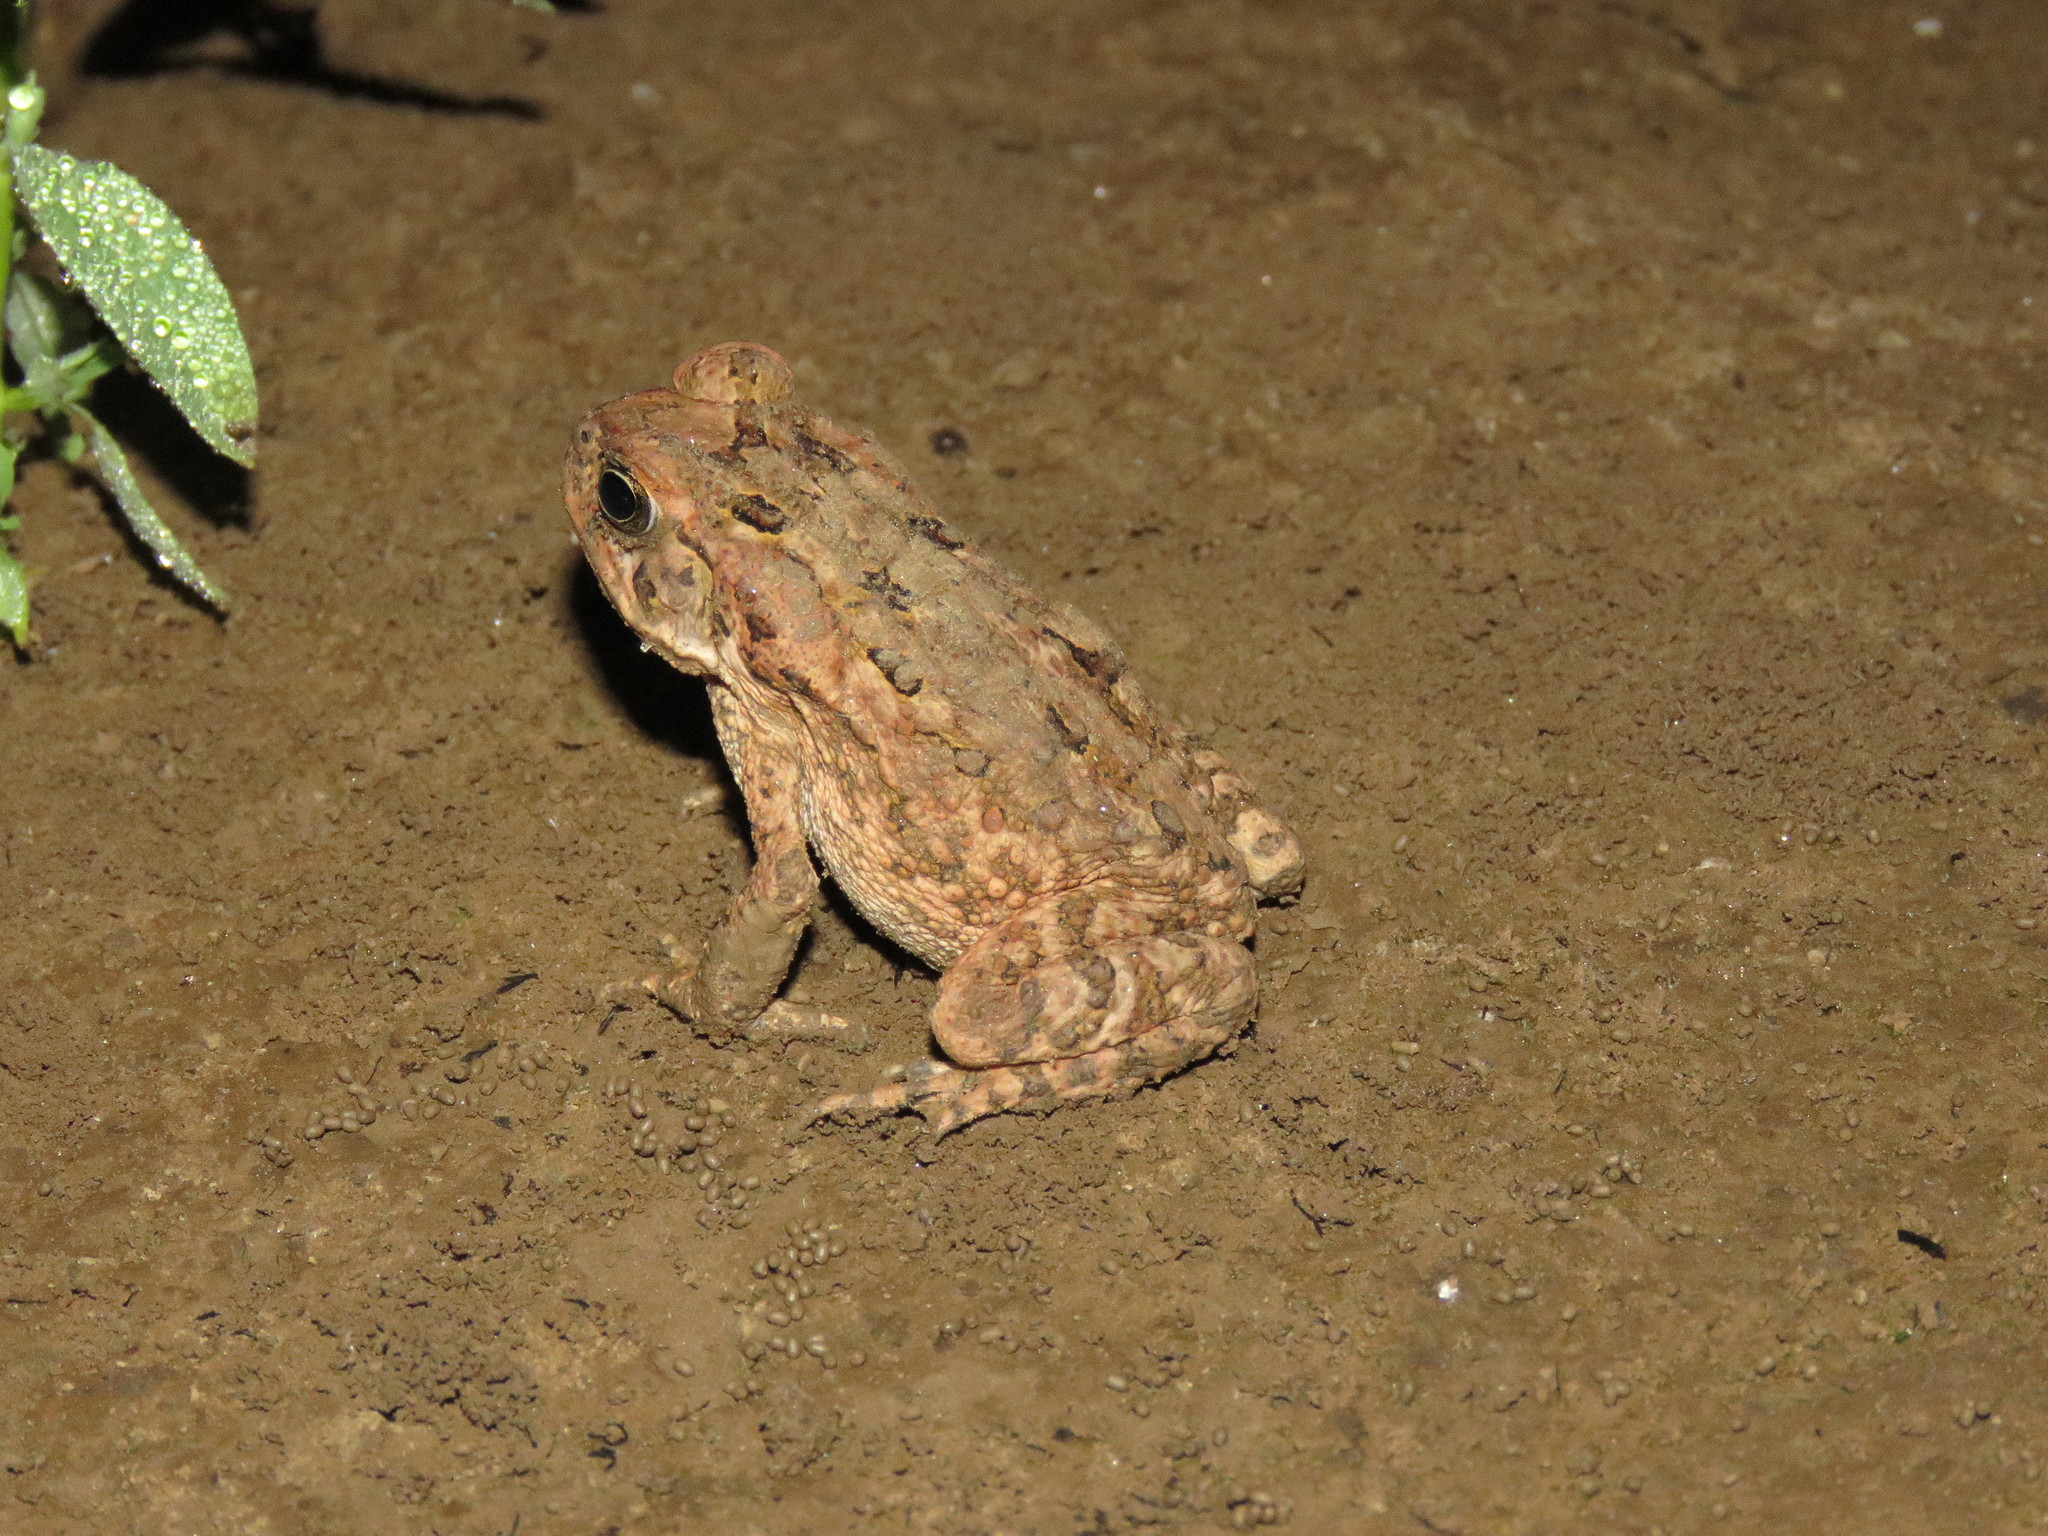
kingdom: Animalia
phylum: Chordata
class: Amphibia
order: Anura
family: Bufonidae
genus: Rhinella
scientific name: Rhinella marina
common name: Cane toad
